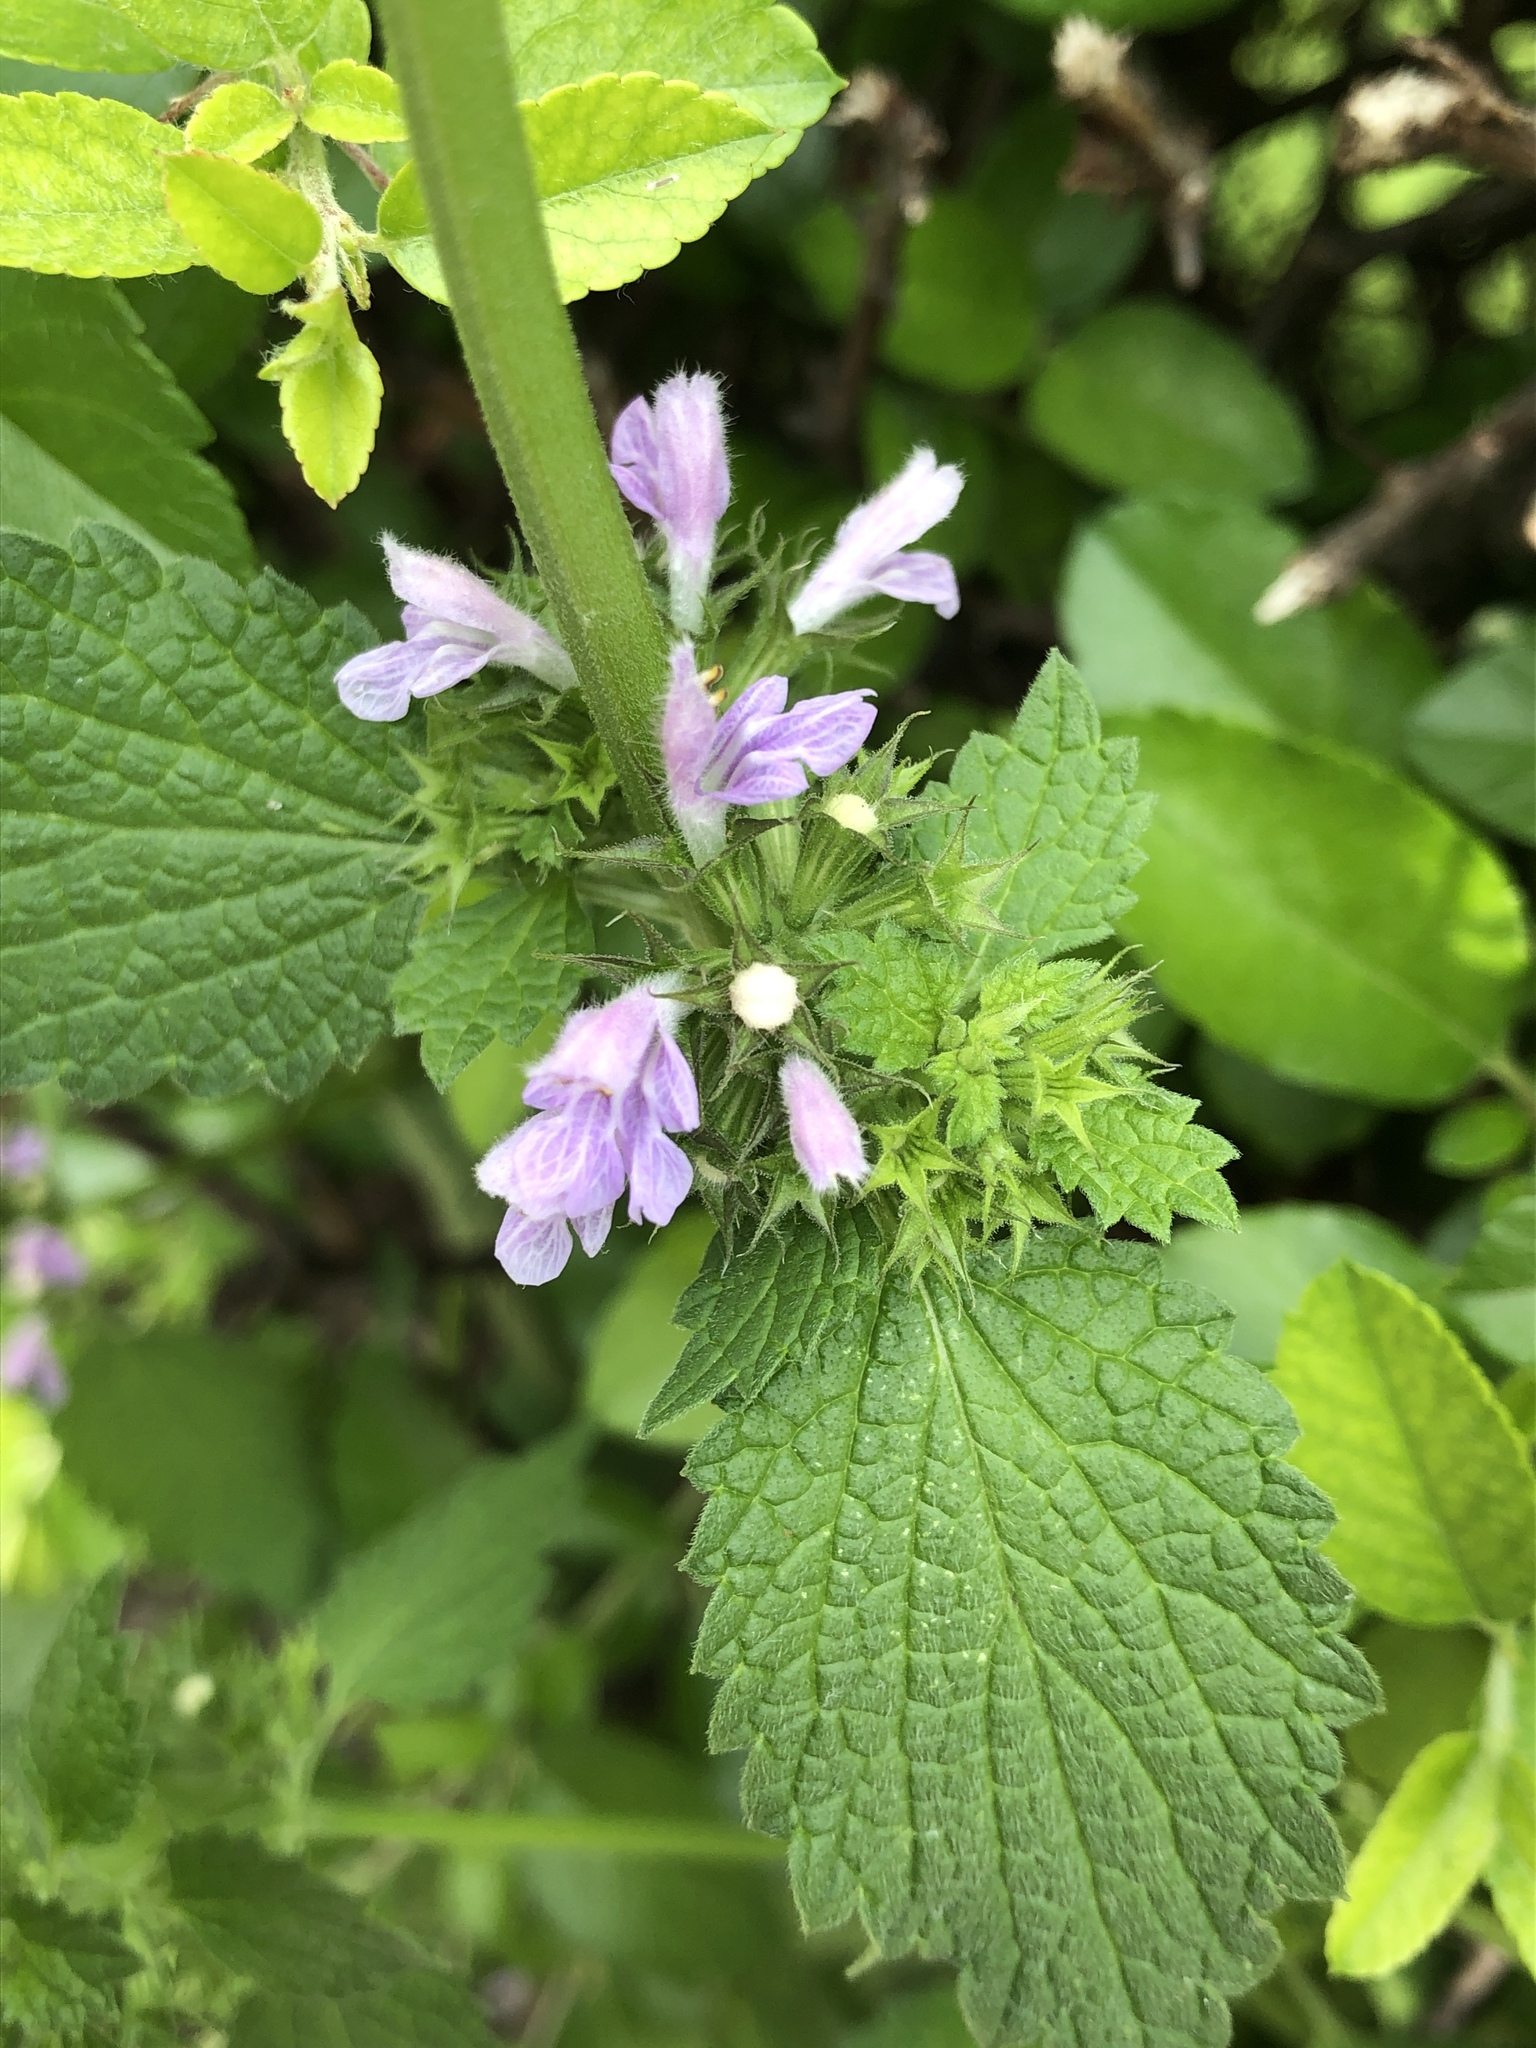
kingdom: Plantae
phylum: Tracheophyta
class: Magnoliopsida
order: Lamiales
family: Lamiaceae
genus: Ballota
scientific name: Ballota nigra
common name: Black horehound
